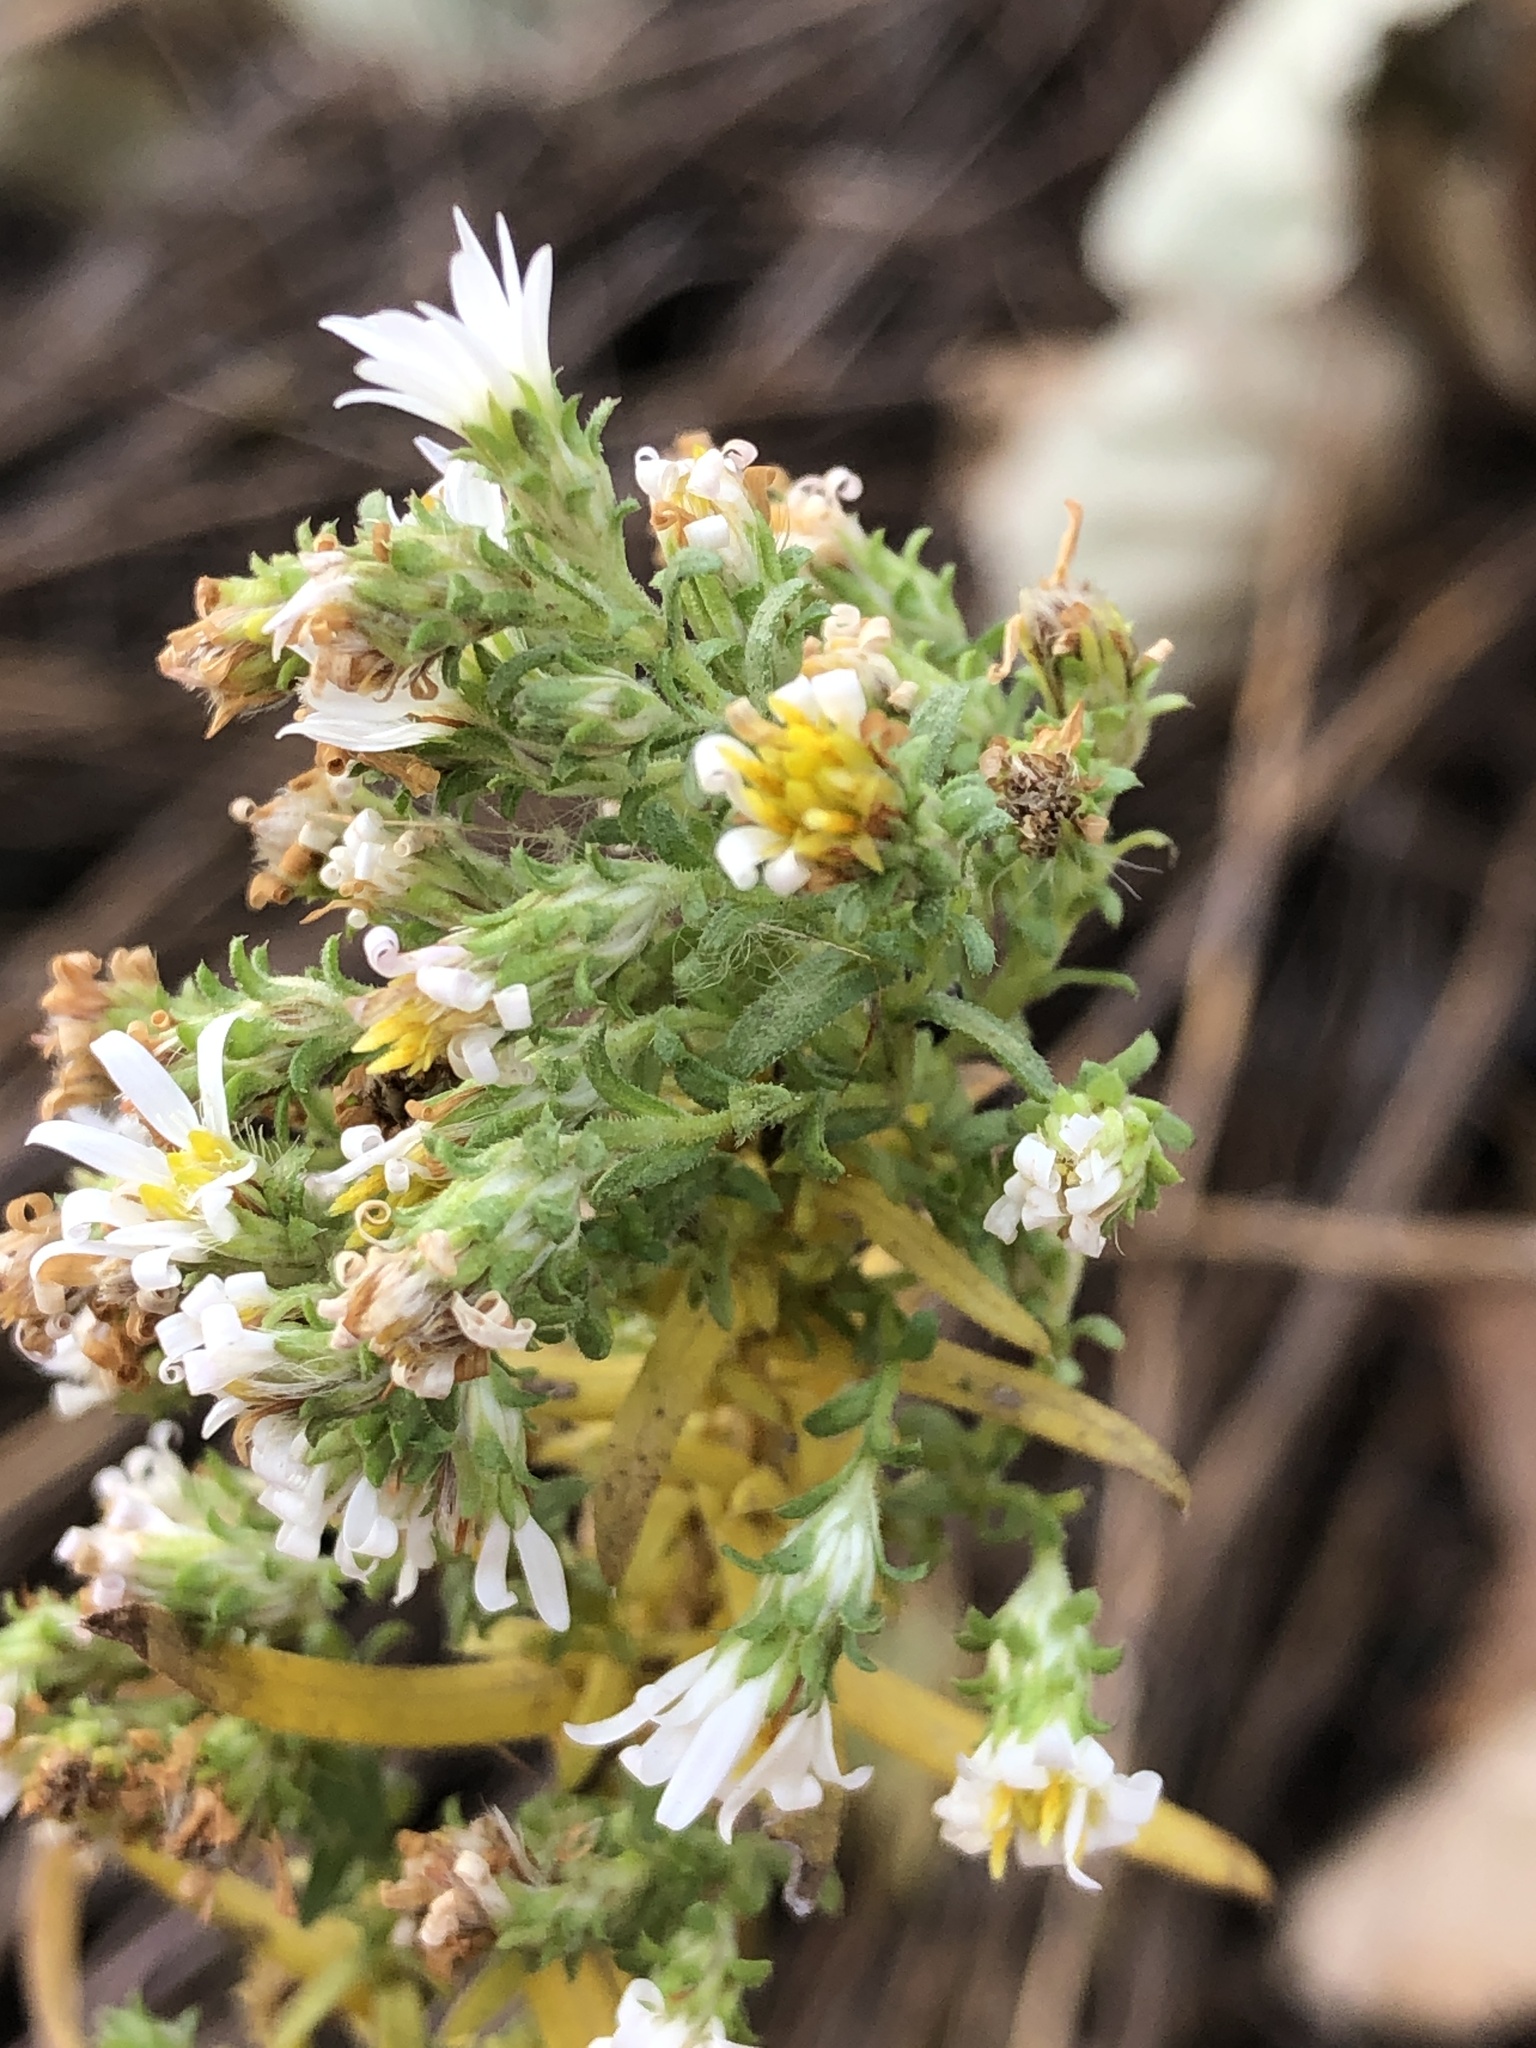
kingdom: Plantae
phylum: Tracheophyta
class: Magnoliopsida
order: Asterales
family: Asteraceae
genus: Symphyotrichum
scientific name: Symphyotrichum ericoides
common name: Heath aster
